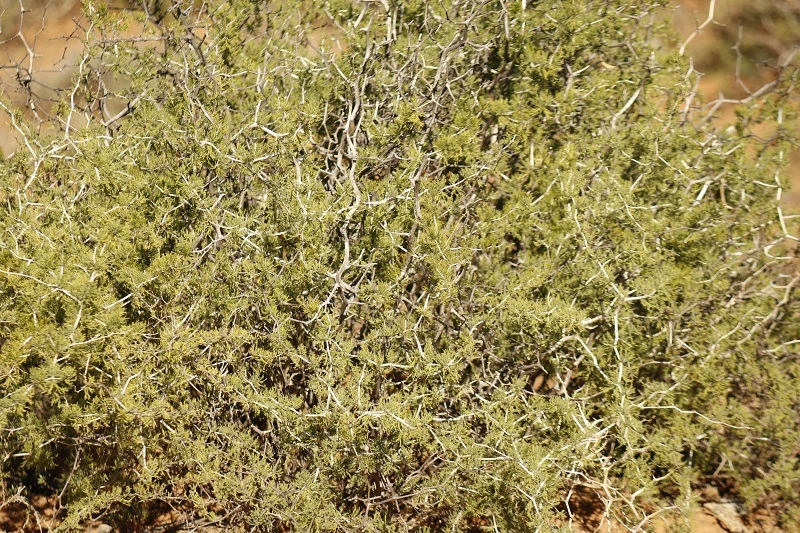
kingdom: Plantae
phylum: Tracheophyta
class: Liliopsida
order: Asparagales
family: Asparagaceae
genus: Asparagus
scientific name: Asparagus burchellii
